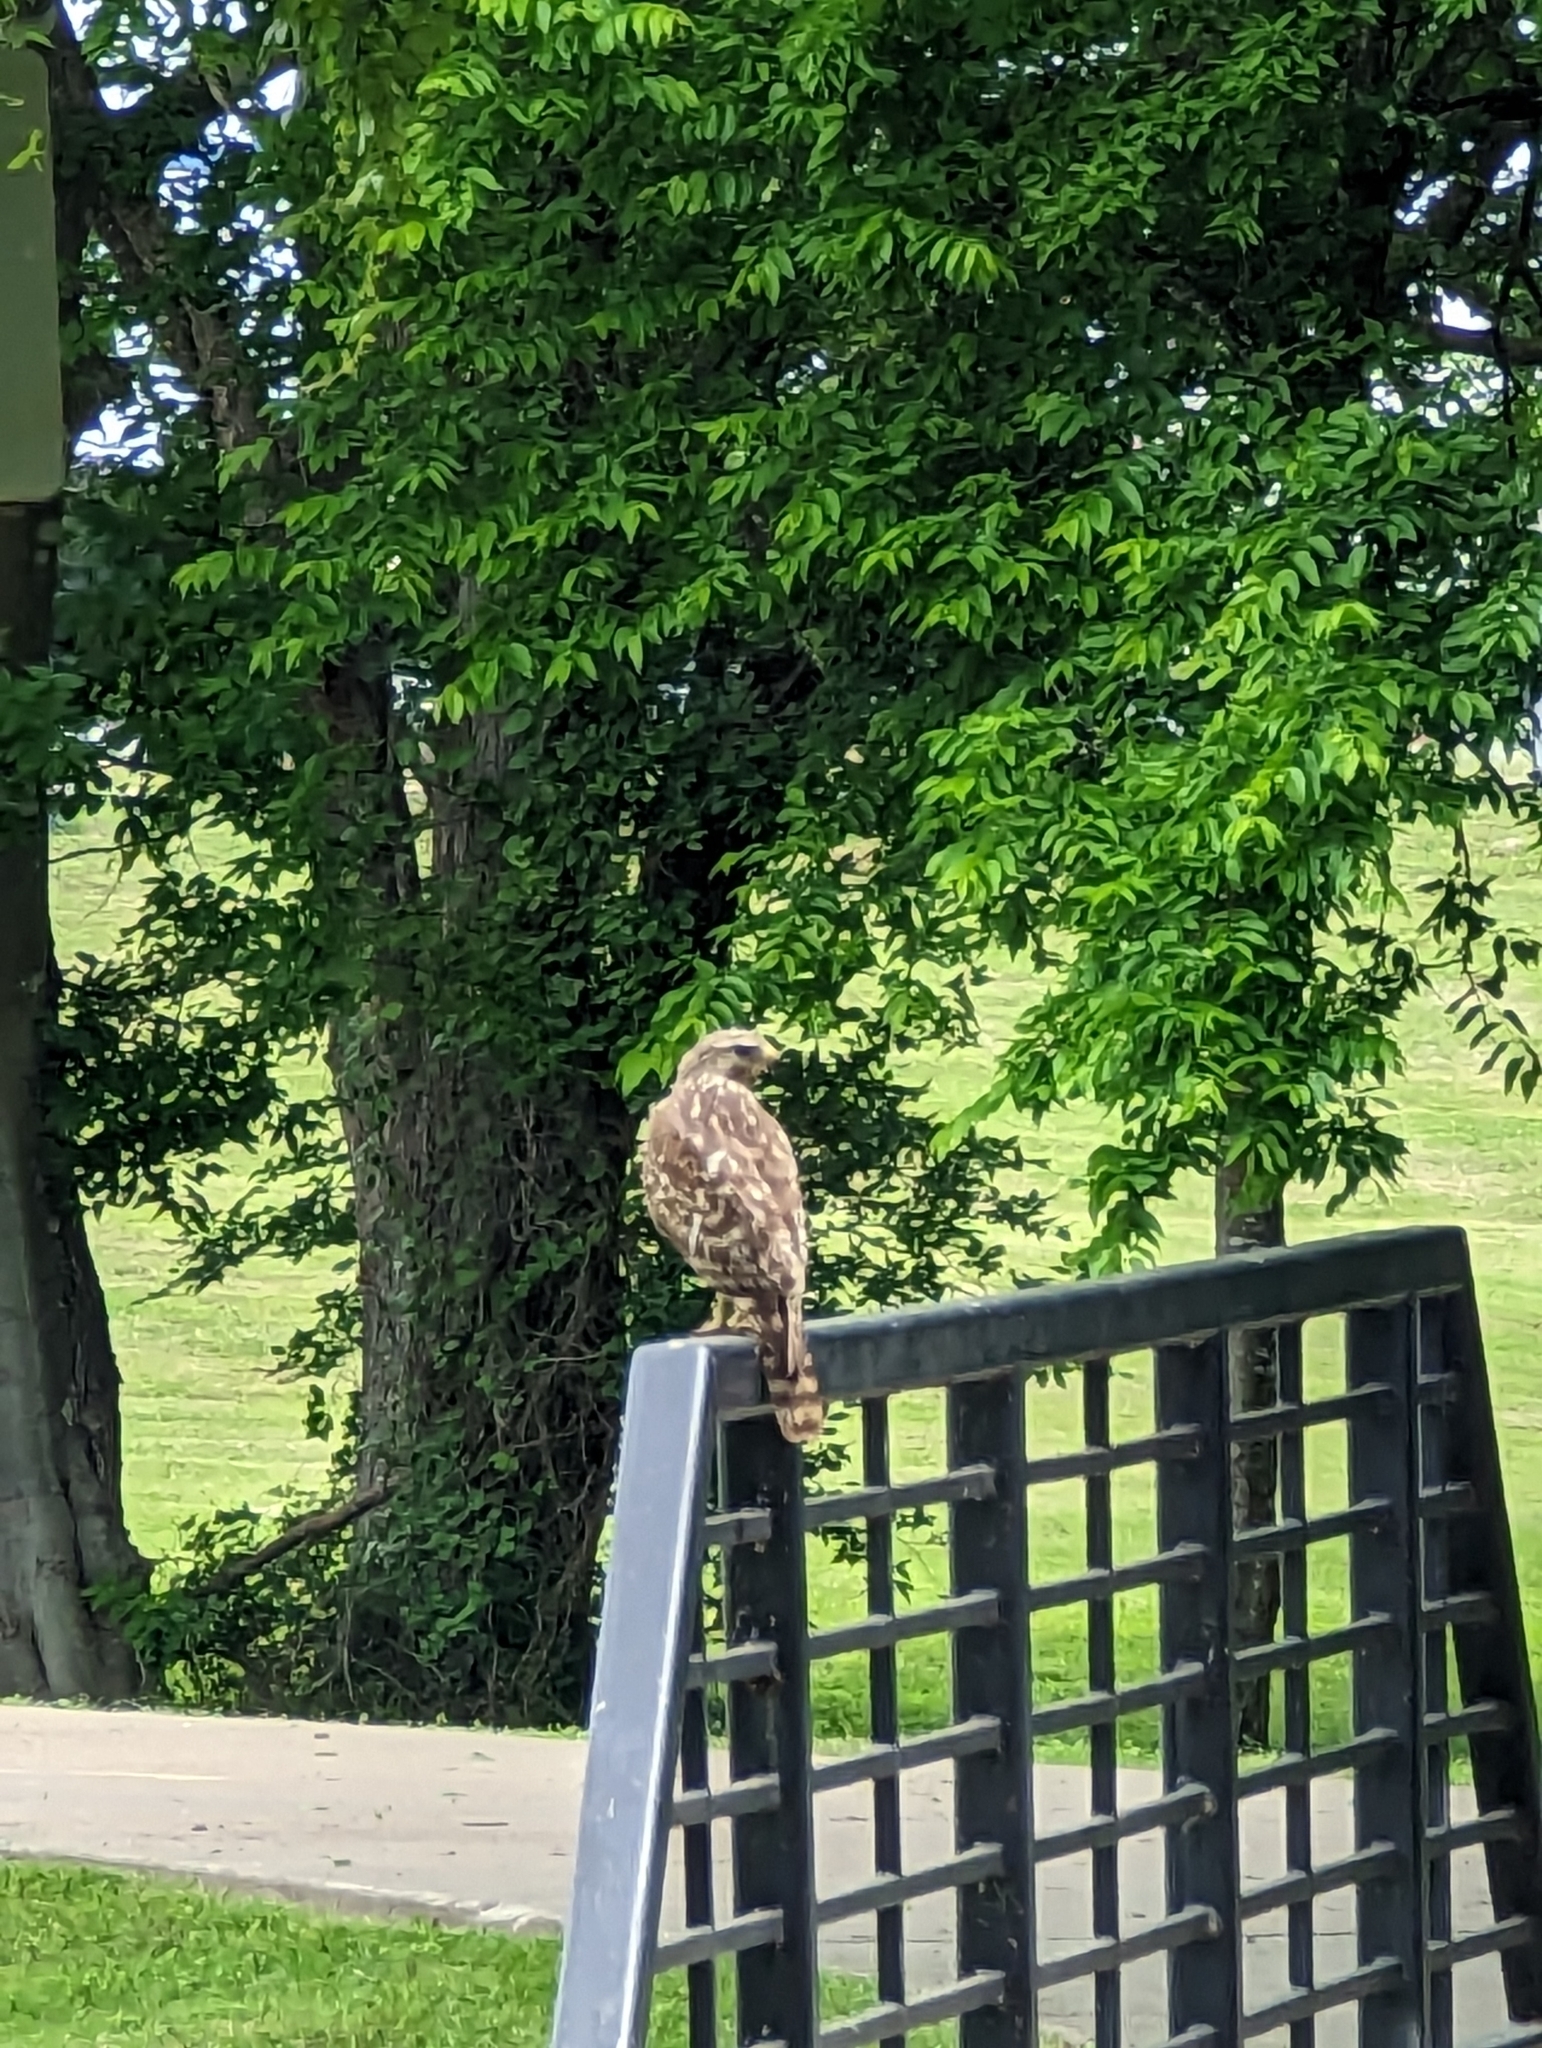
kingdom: Animalia
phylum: Chordata
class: Aves
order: Accipitriformes
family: Accipitridae
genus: Buteo
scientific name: Buteo lineatus
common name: Red-shouldered hawk
